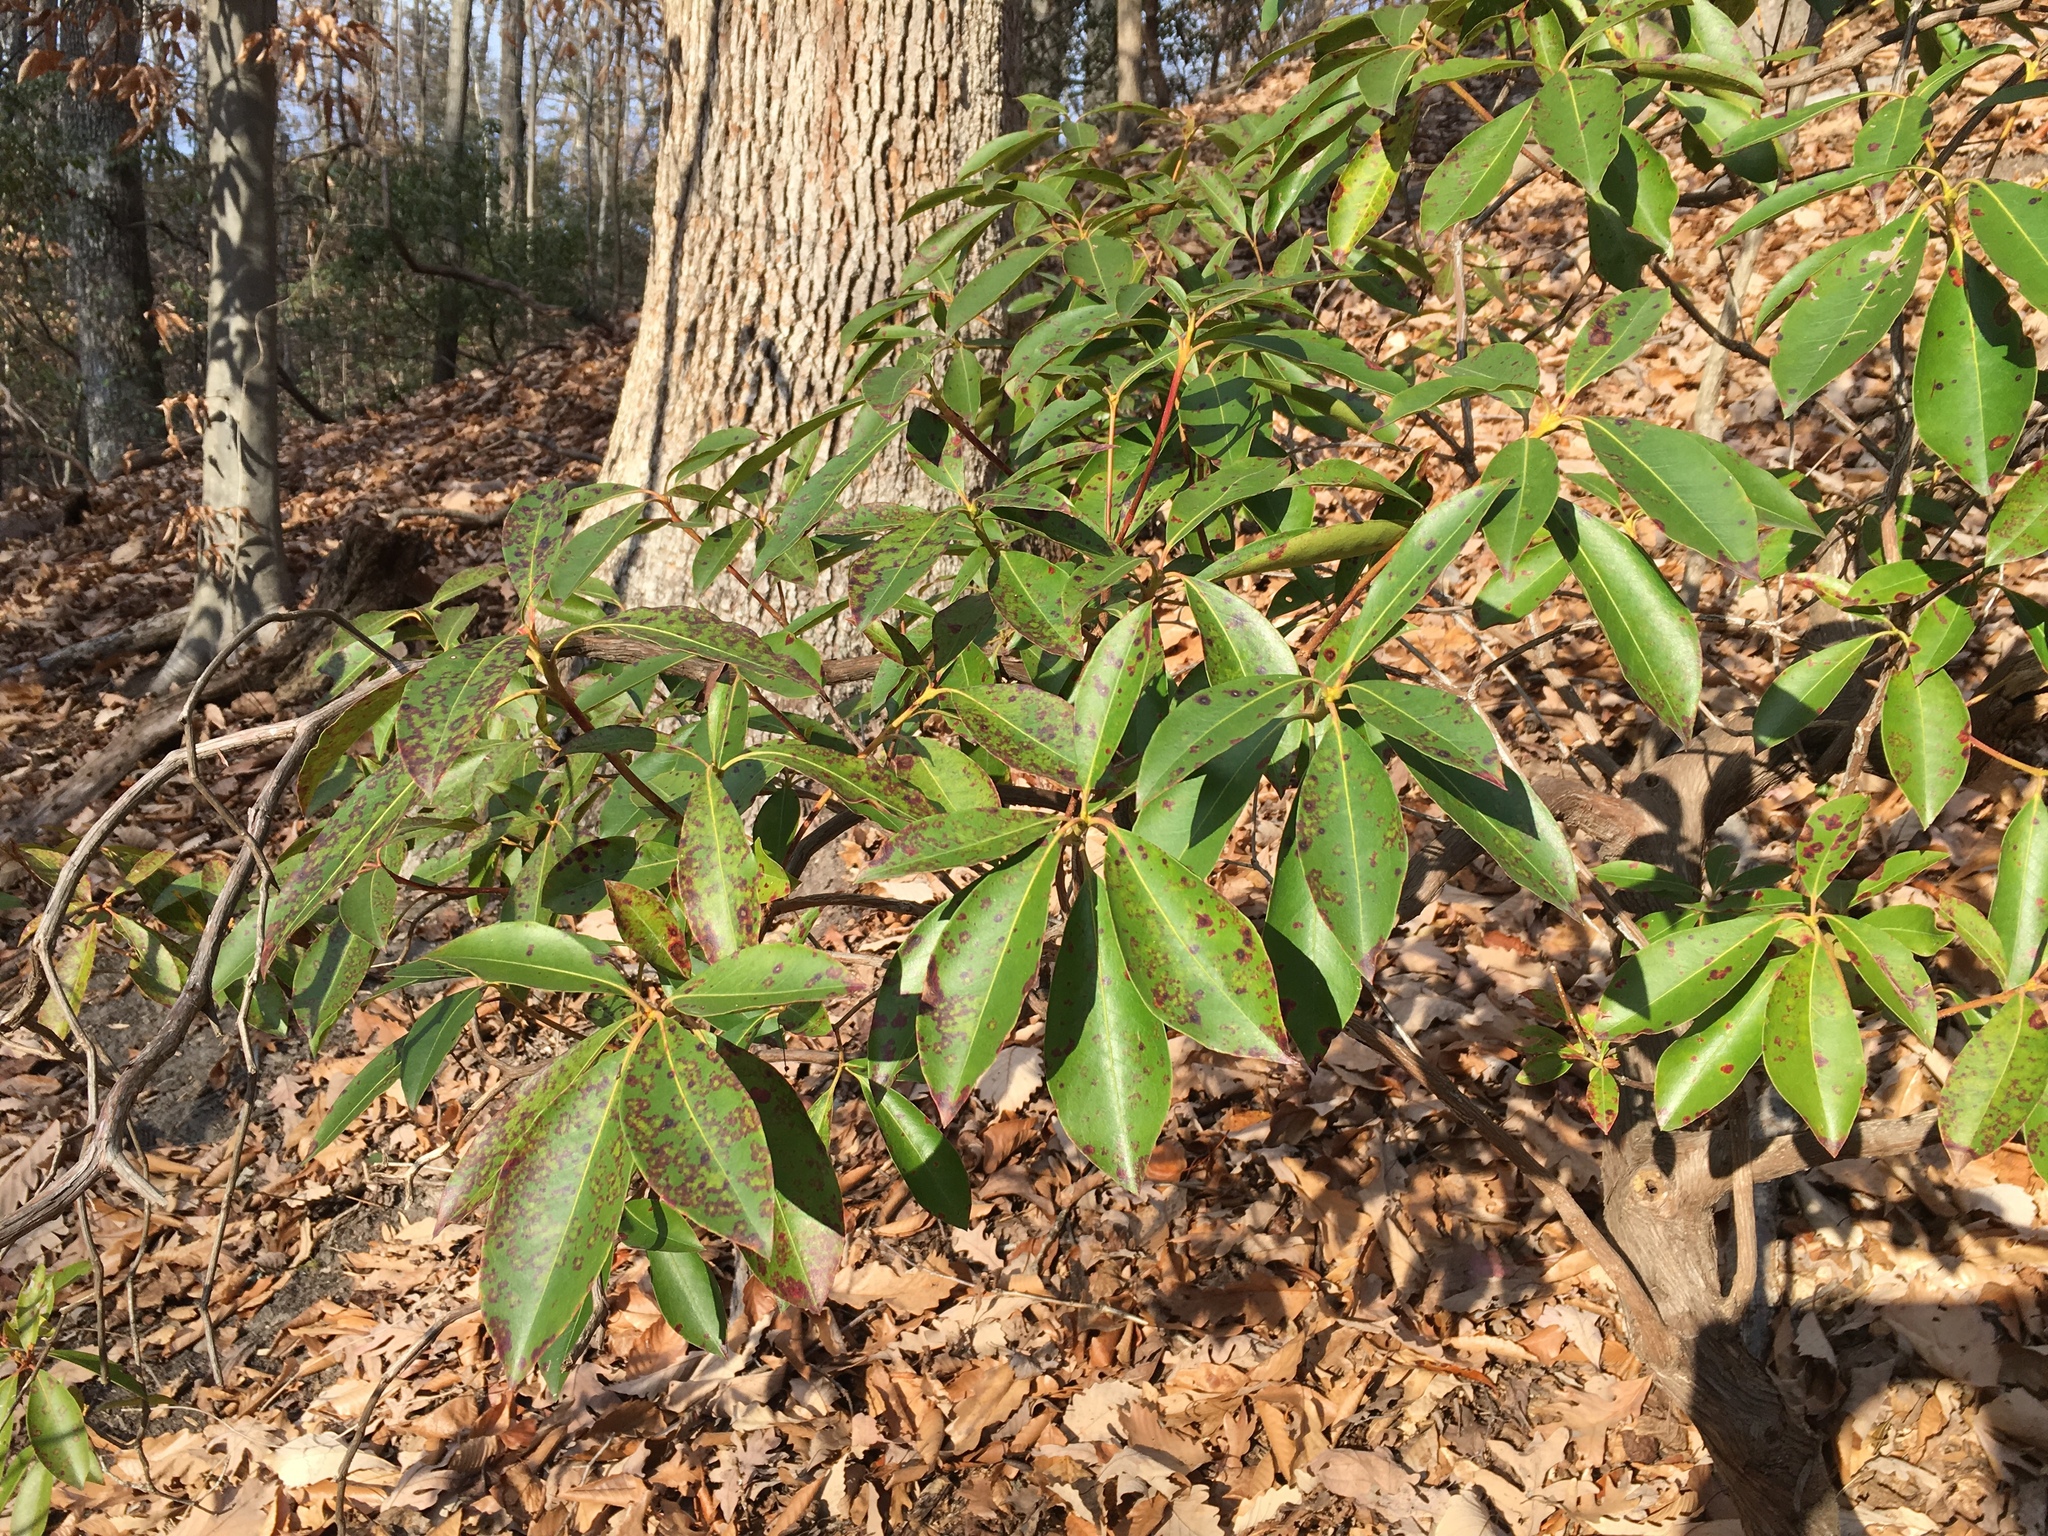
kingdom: Plantae
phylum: Tracheophyta
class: Magnoliopsida
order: Ericales
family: Ericaceae
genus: Kalmia
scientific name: Kalmia latifolia
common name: Mountain-laurel
